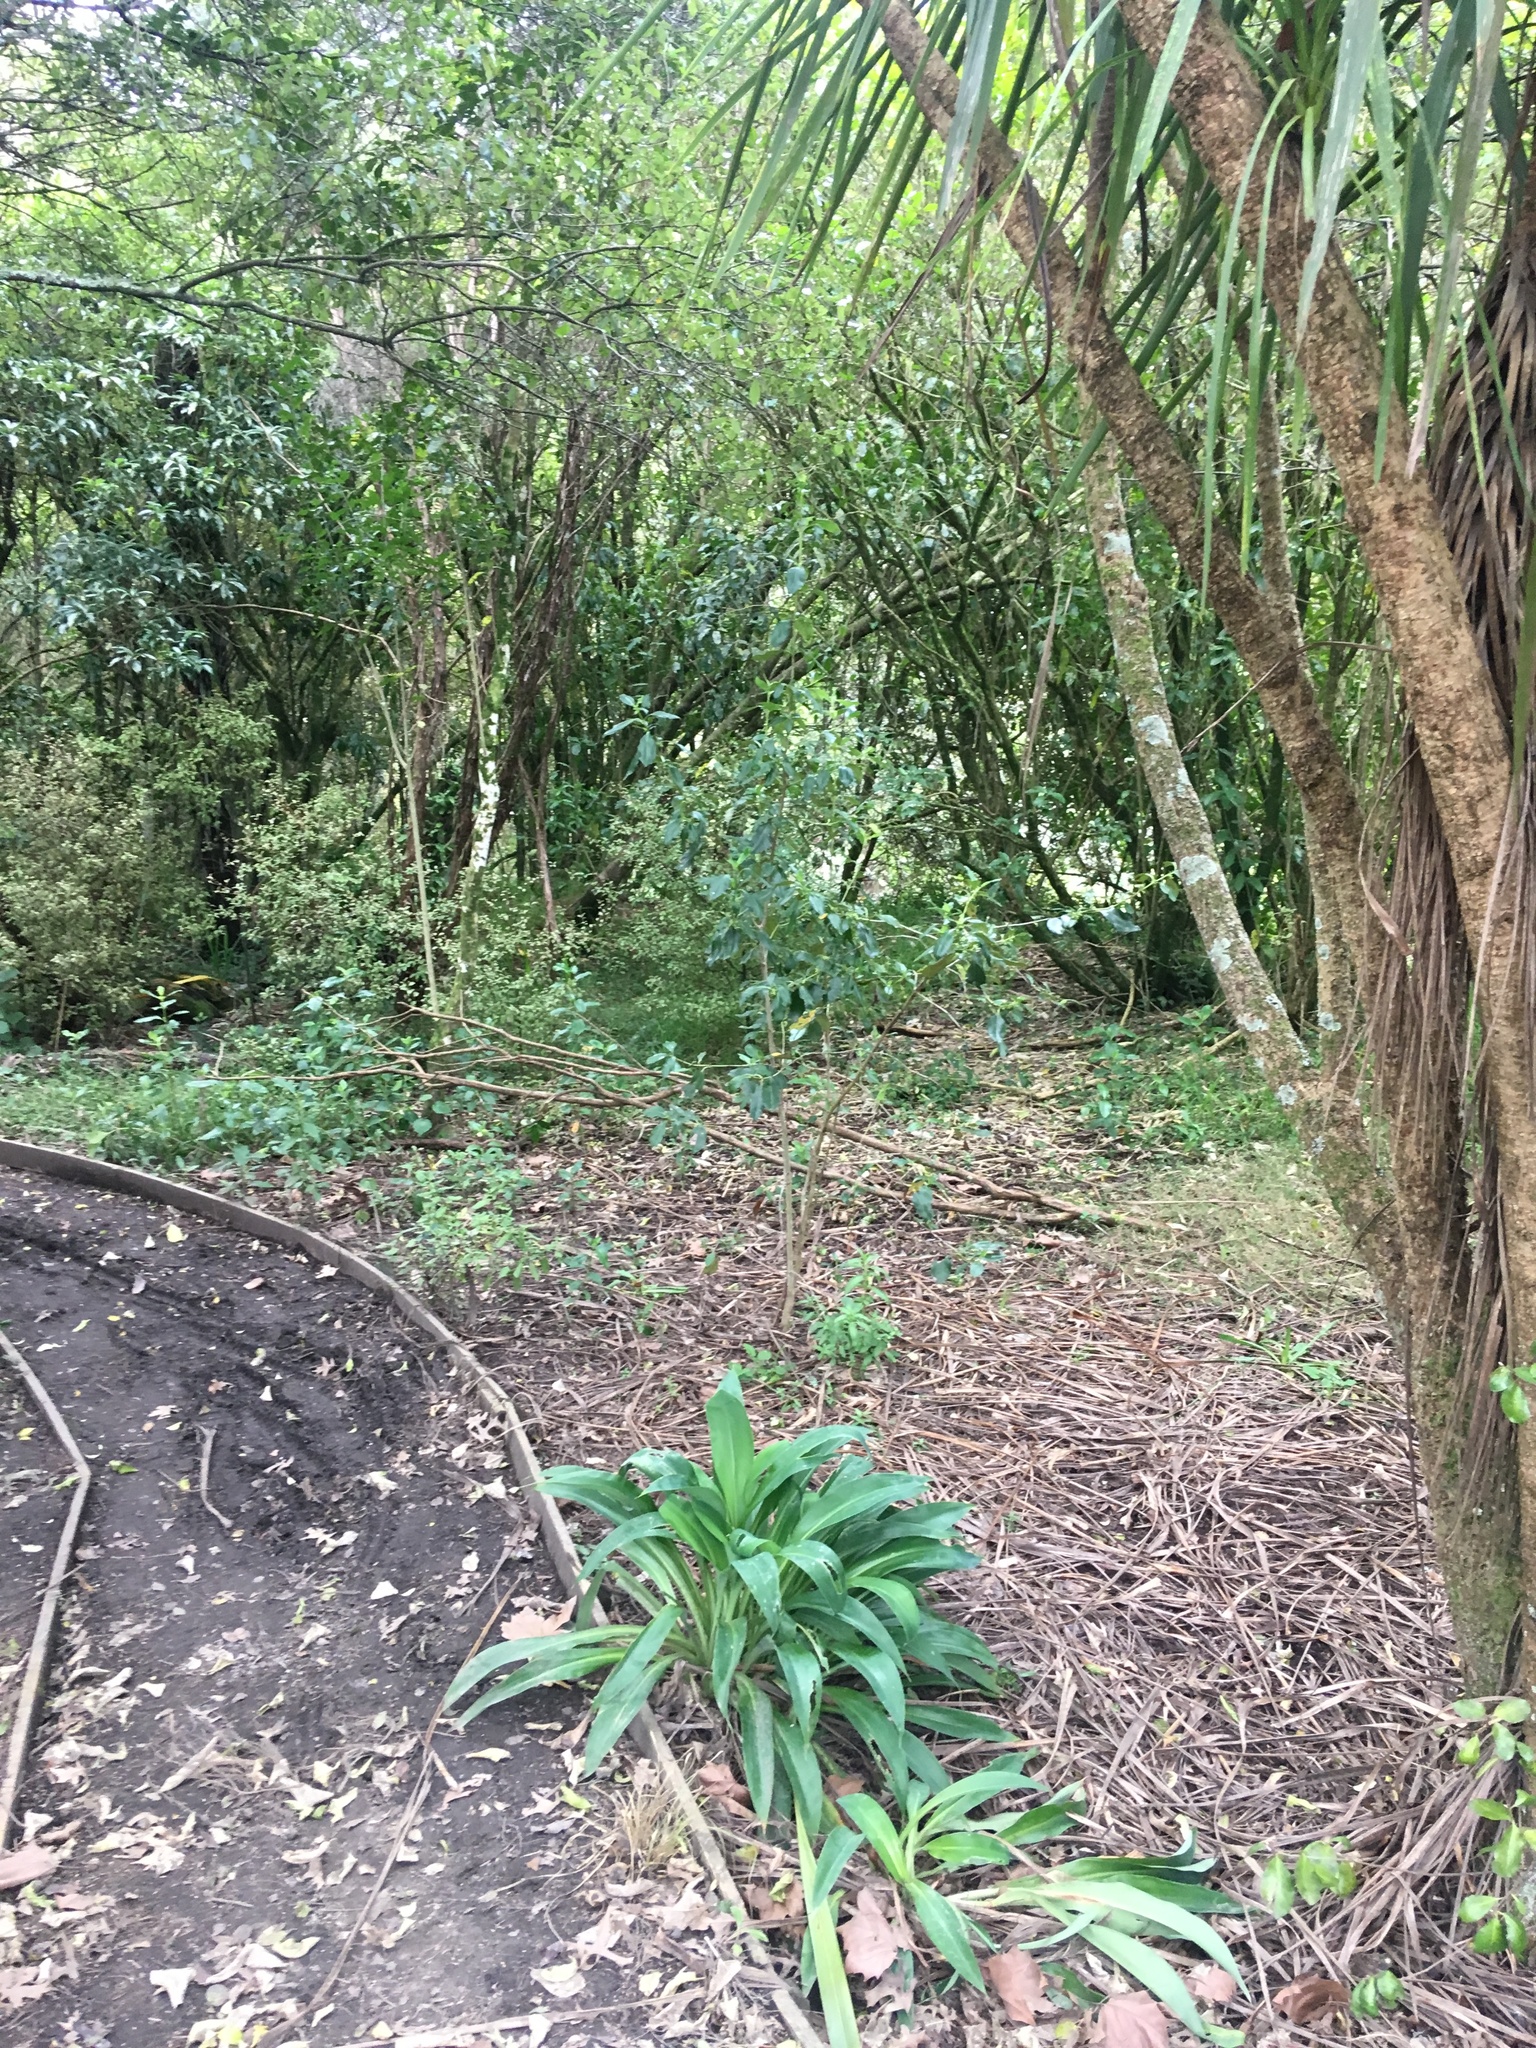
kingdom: Plantae
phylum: Tracheophyta
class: Liliopsida
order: Asparagales
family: Asparagaceae
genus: Cordyline
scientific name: Cordyline australis
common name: Cabbage-palm
